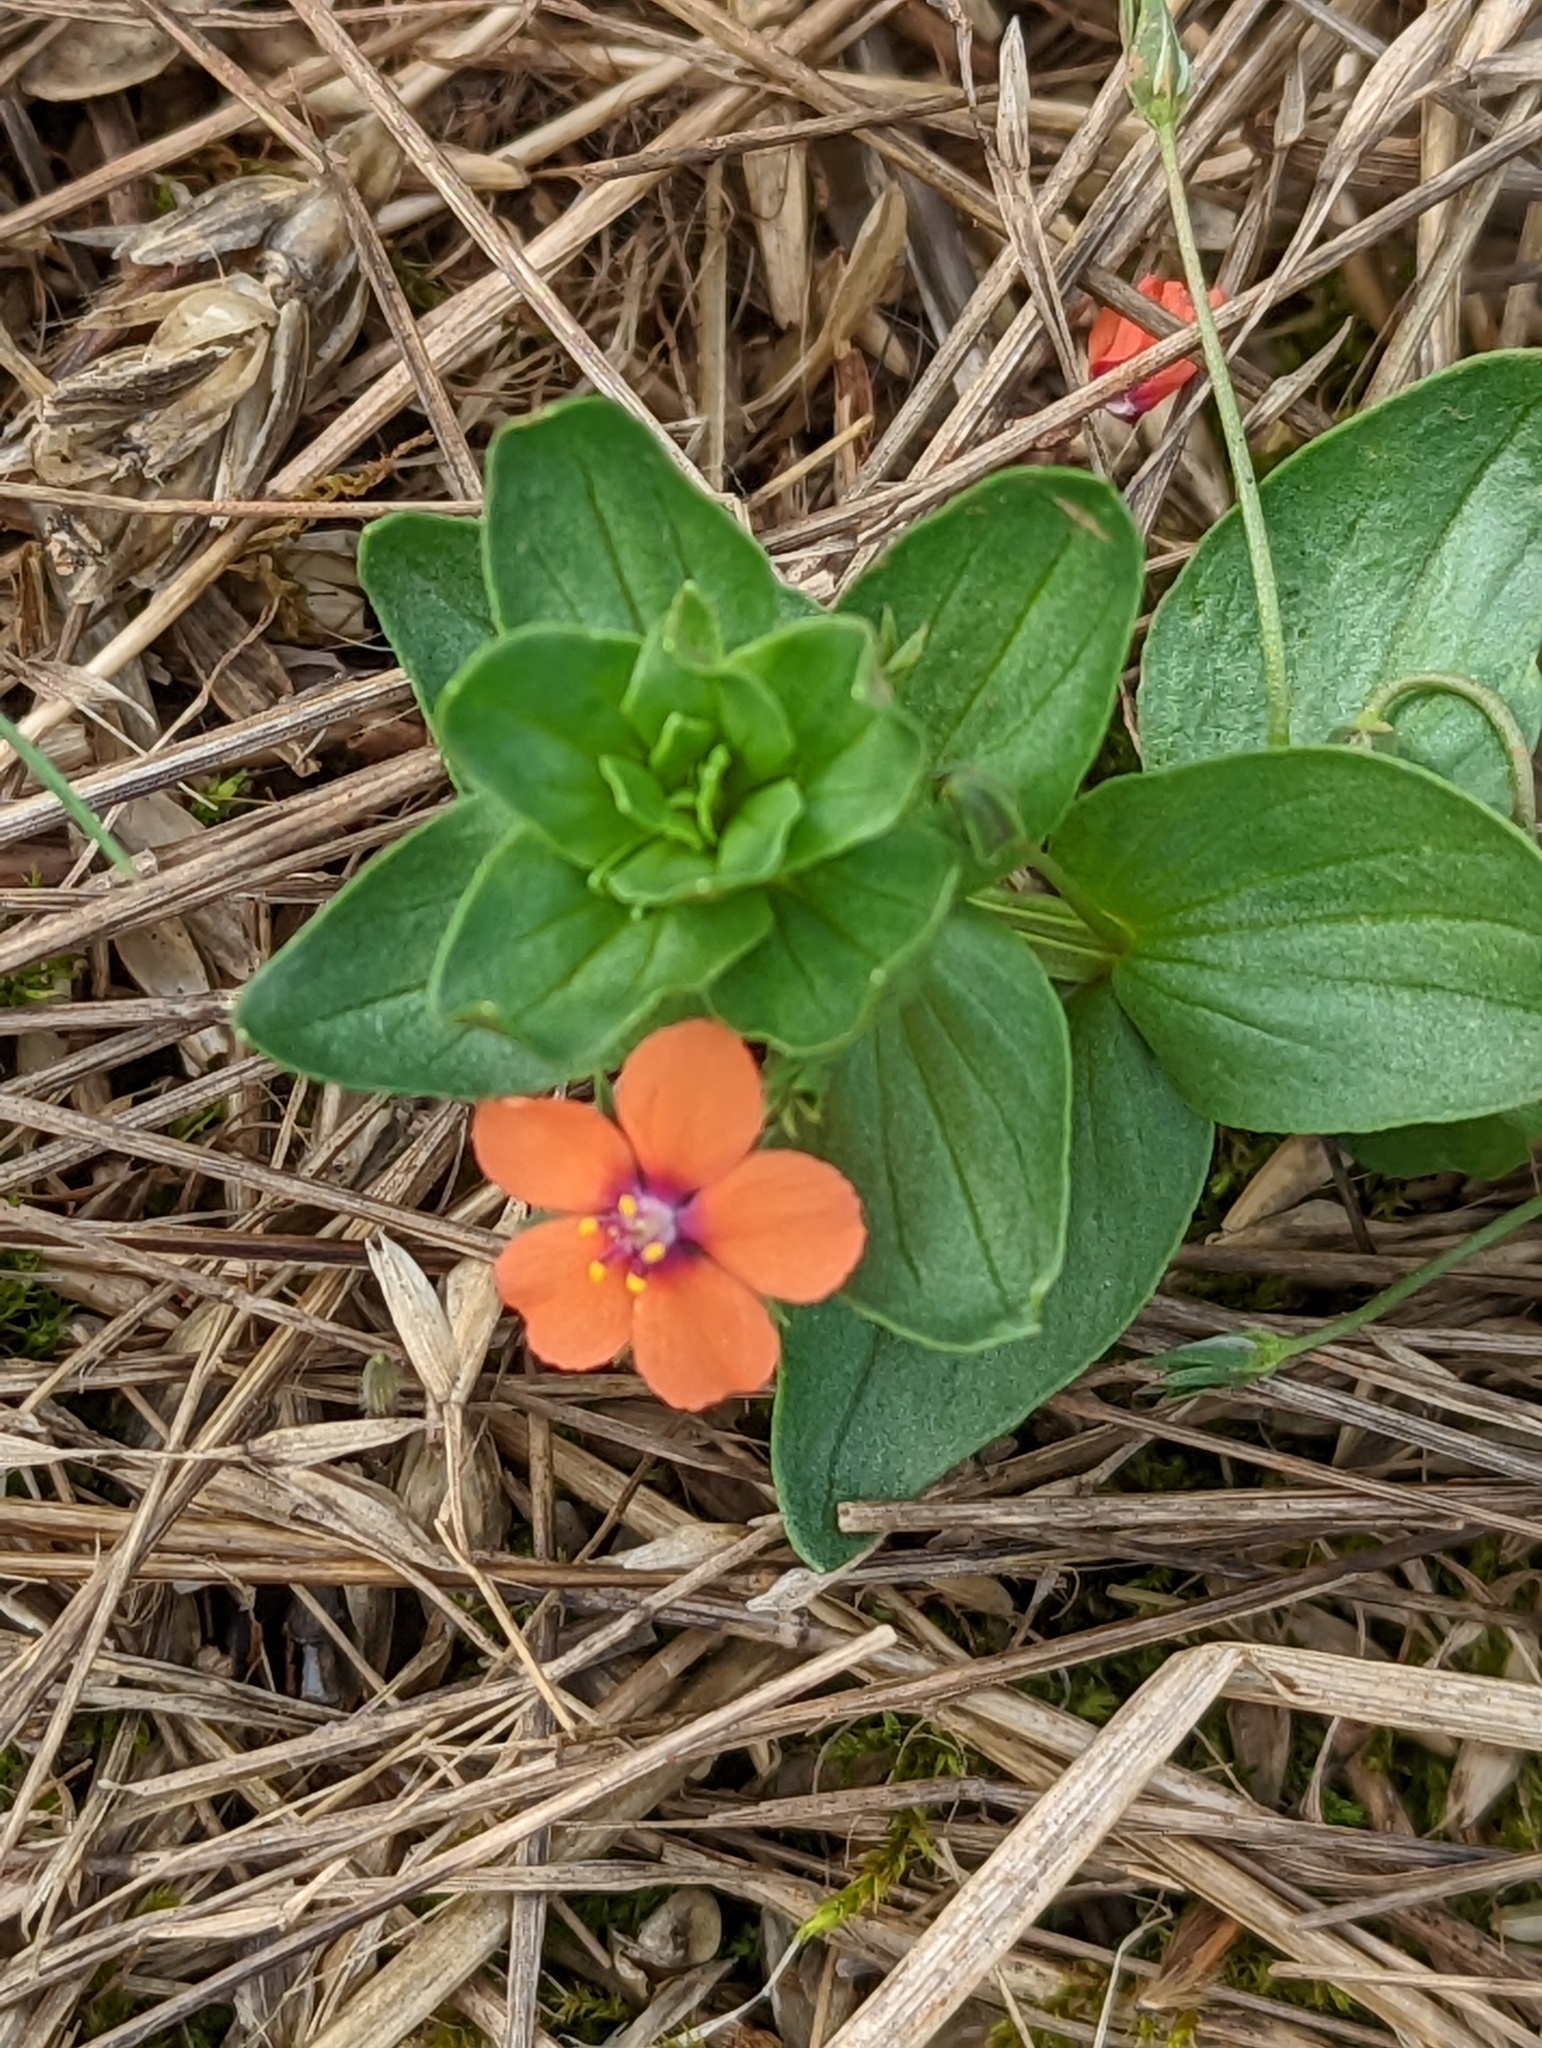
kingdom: Plantae
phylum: Tracheophyta
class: Magnoliopsida
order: Ericales
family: Primulaceae
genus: Lysimachia
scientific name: Lysimachia arvensis
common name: Scarlet pimpernel
